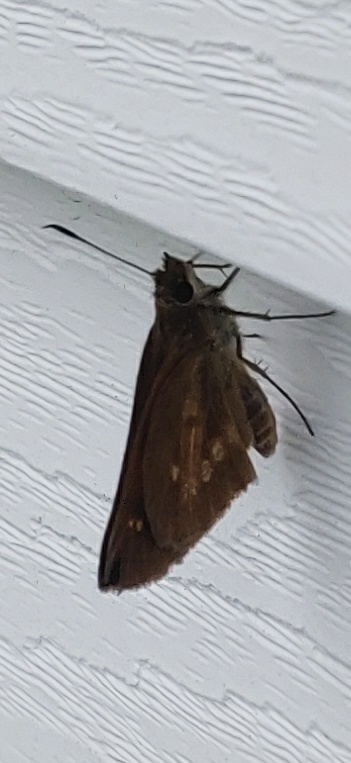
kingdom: Animalia
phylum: Arthropoda
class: Insecta
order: Lepidoptera
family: Hesperiidae
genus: Poanes
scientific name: Poanes viator
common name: Broad-winged skipper
